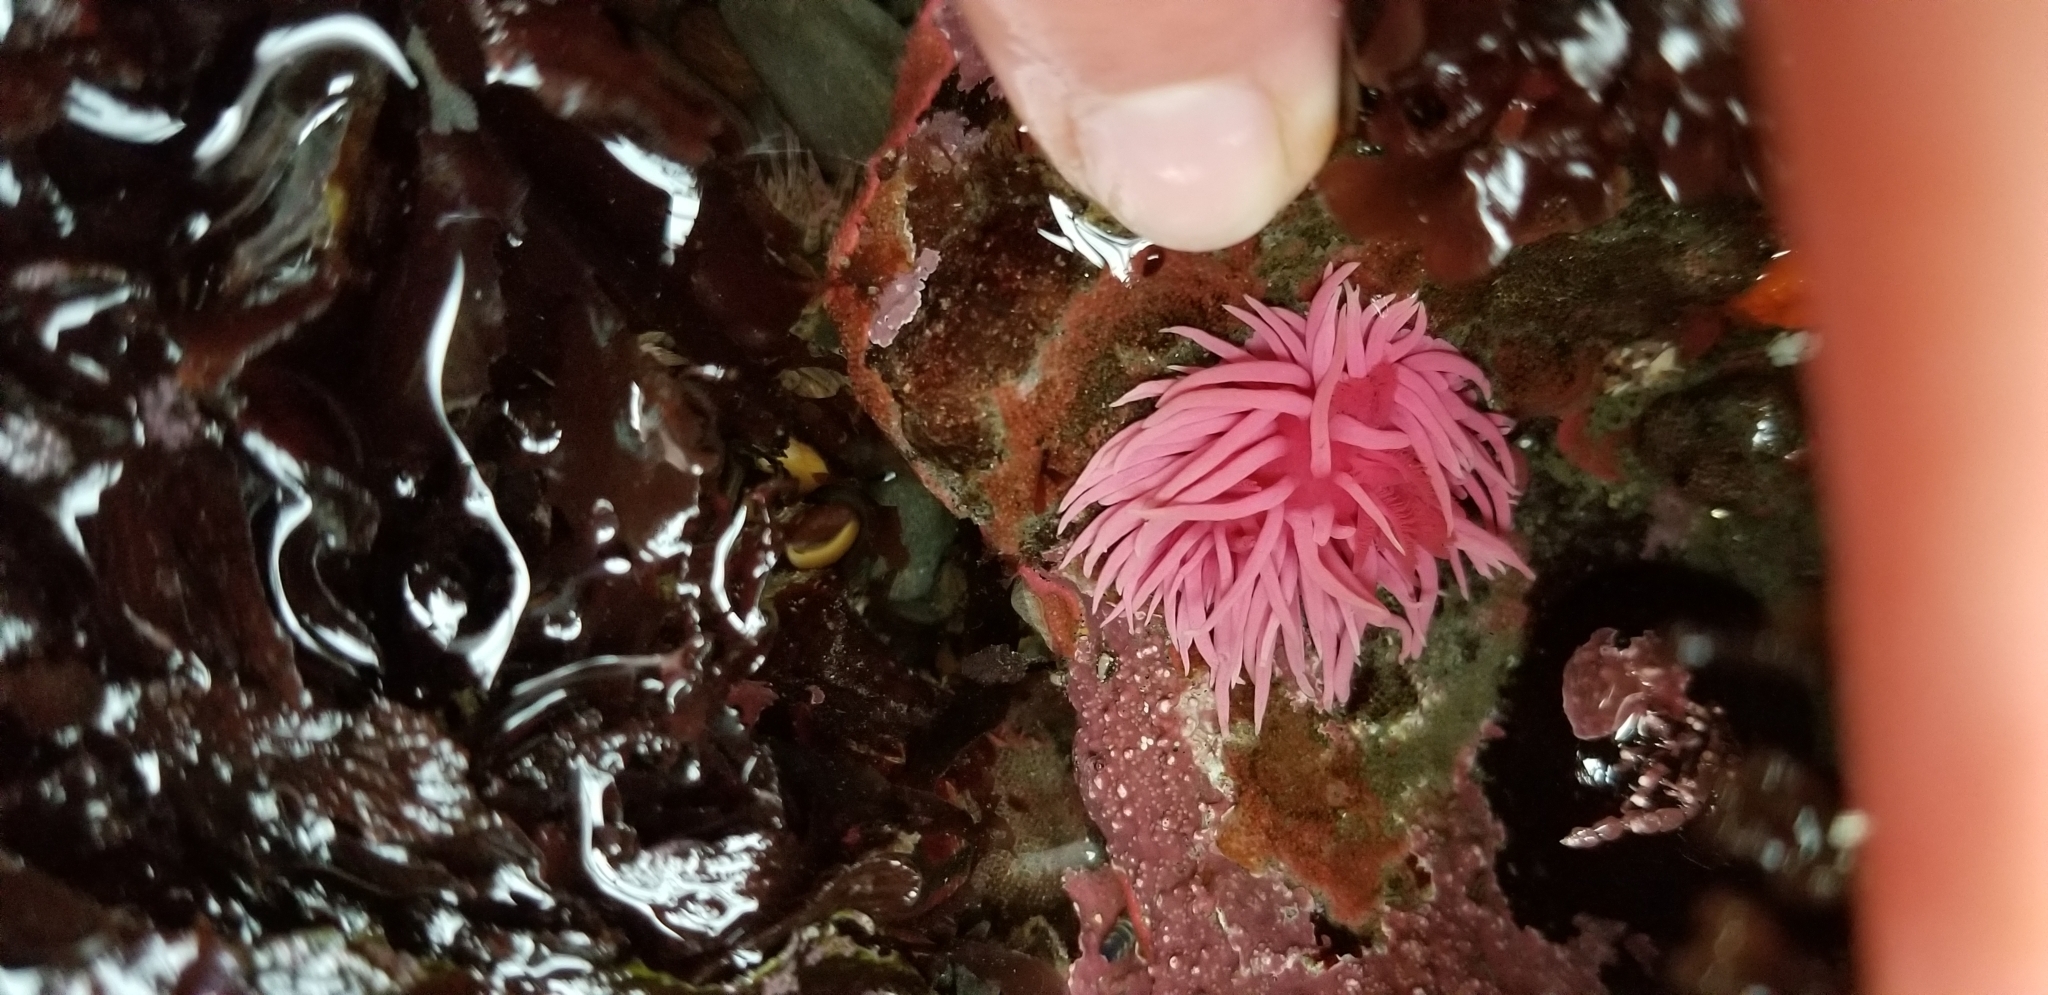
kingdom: Animalia
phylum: Mollusca
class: Gastropoda
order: Nudibranchia
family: Goniodorididae
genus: Okenia
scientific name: Okenia
